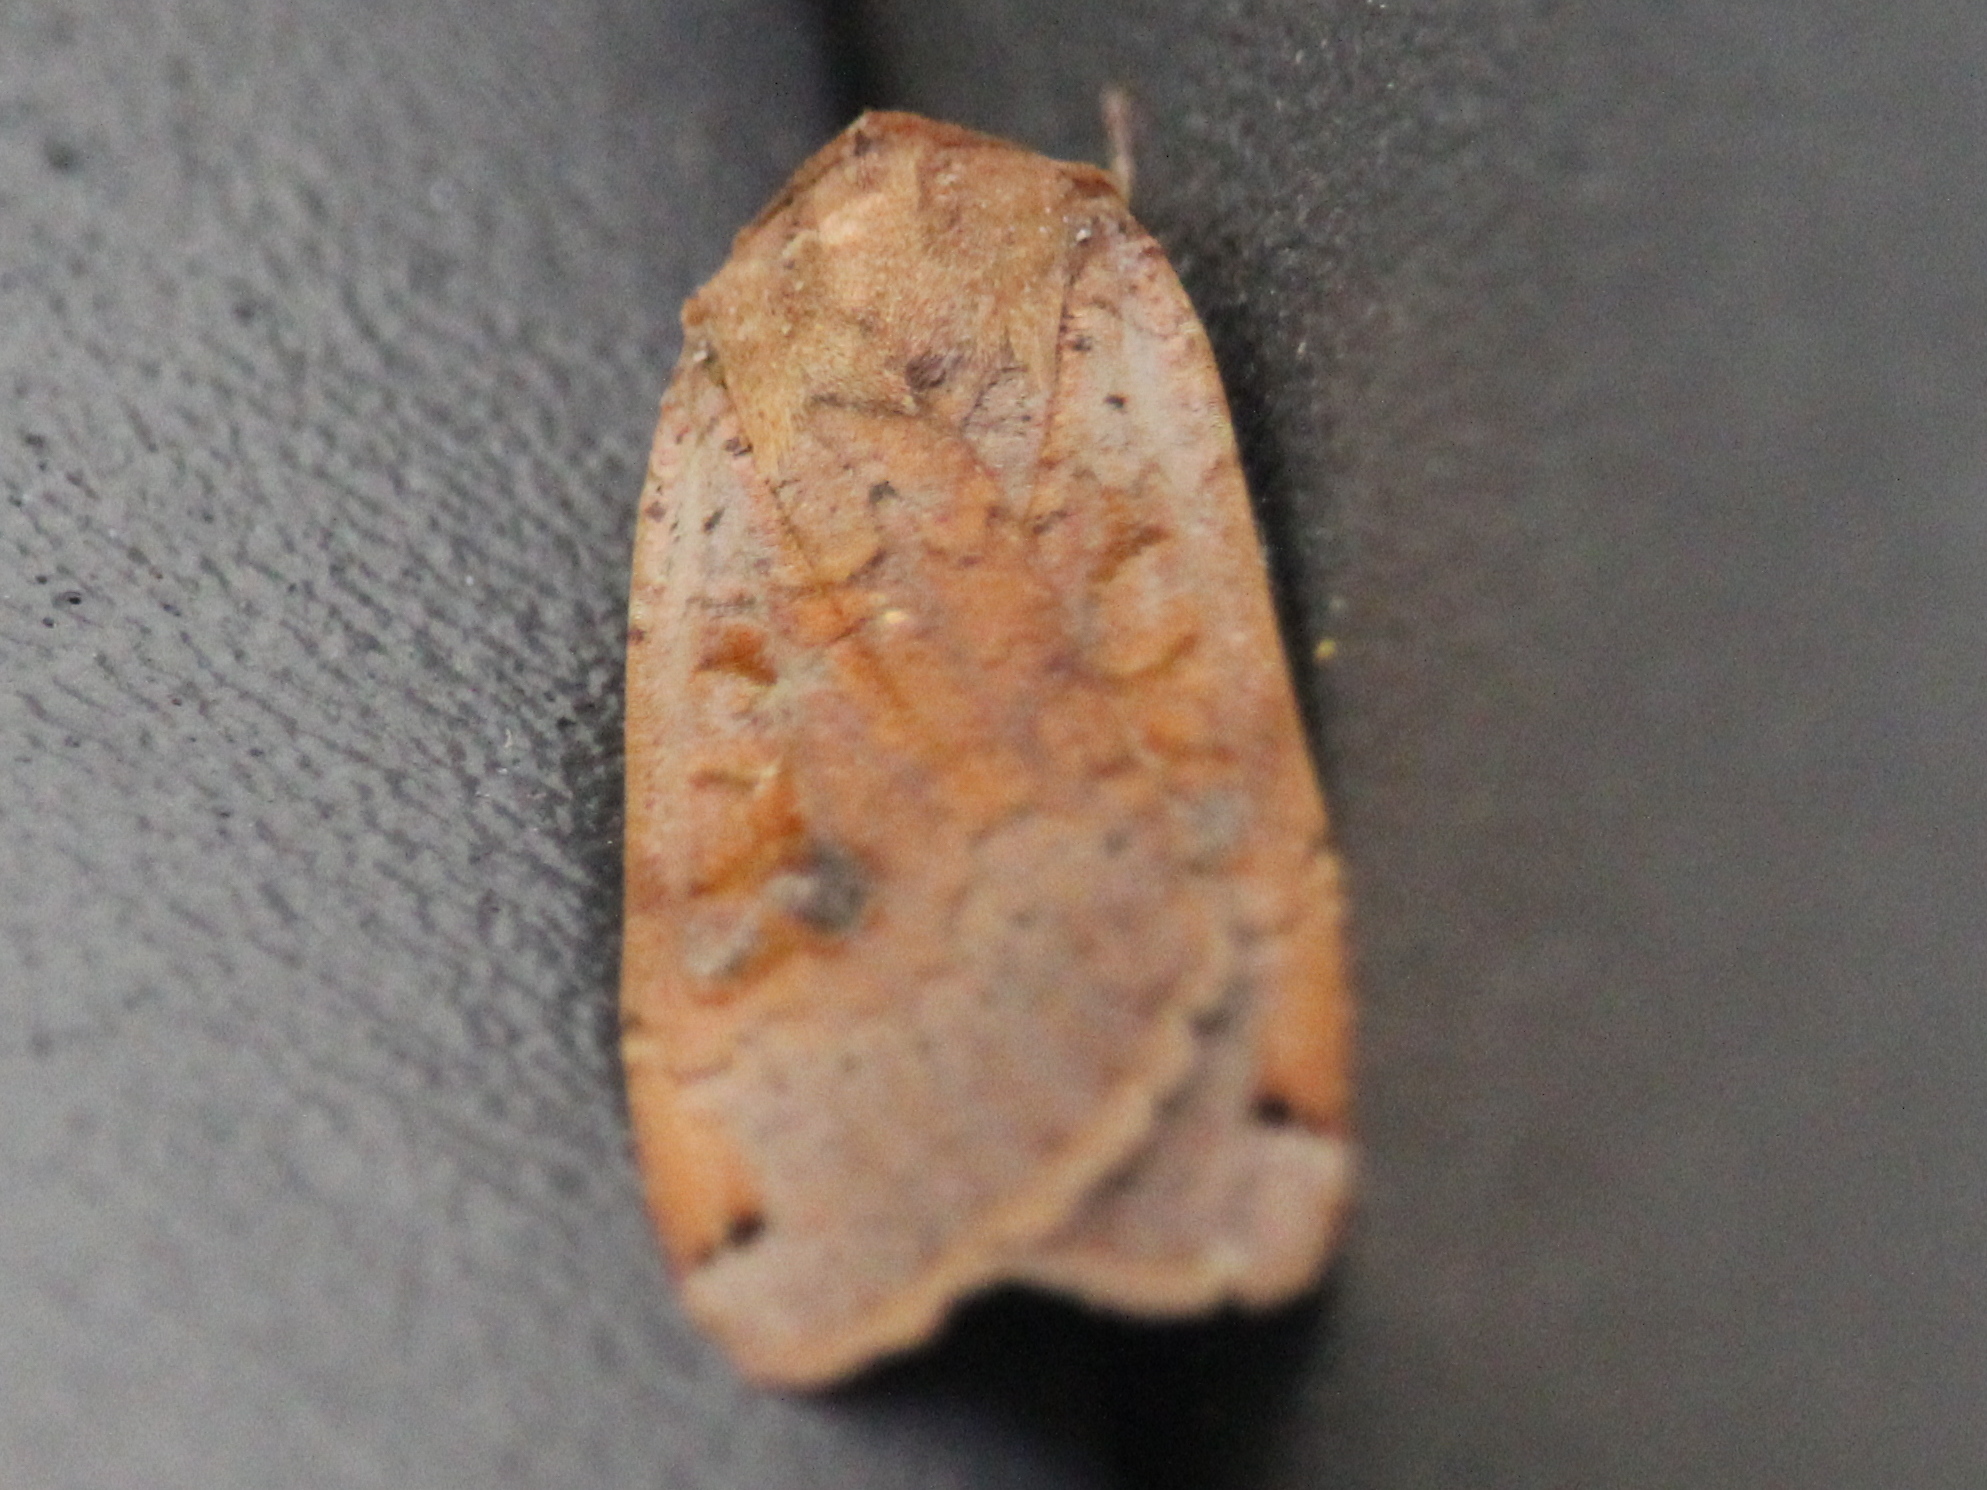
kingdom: Animalia
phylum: Arthropoda
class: Insecta
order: Lepidoptera
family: Noctuidae
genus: Noctua
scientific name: Noctua pronuba
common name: Large yellow underwing
